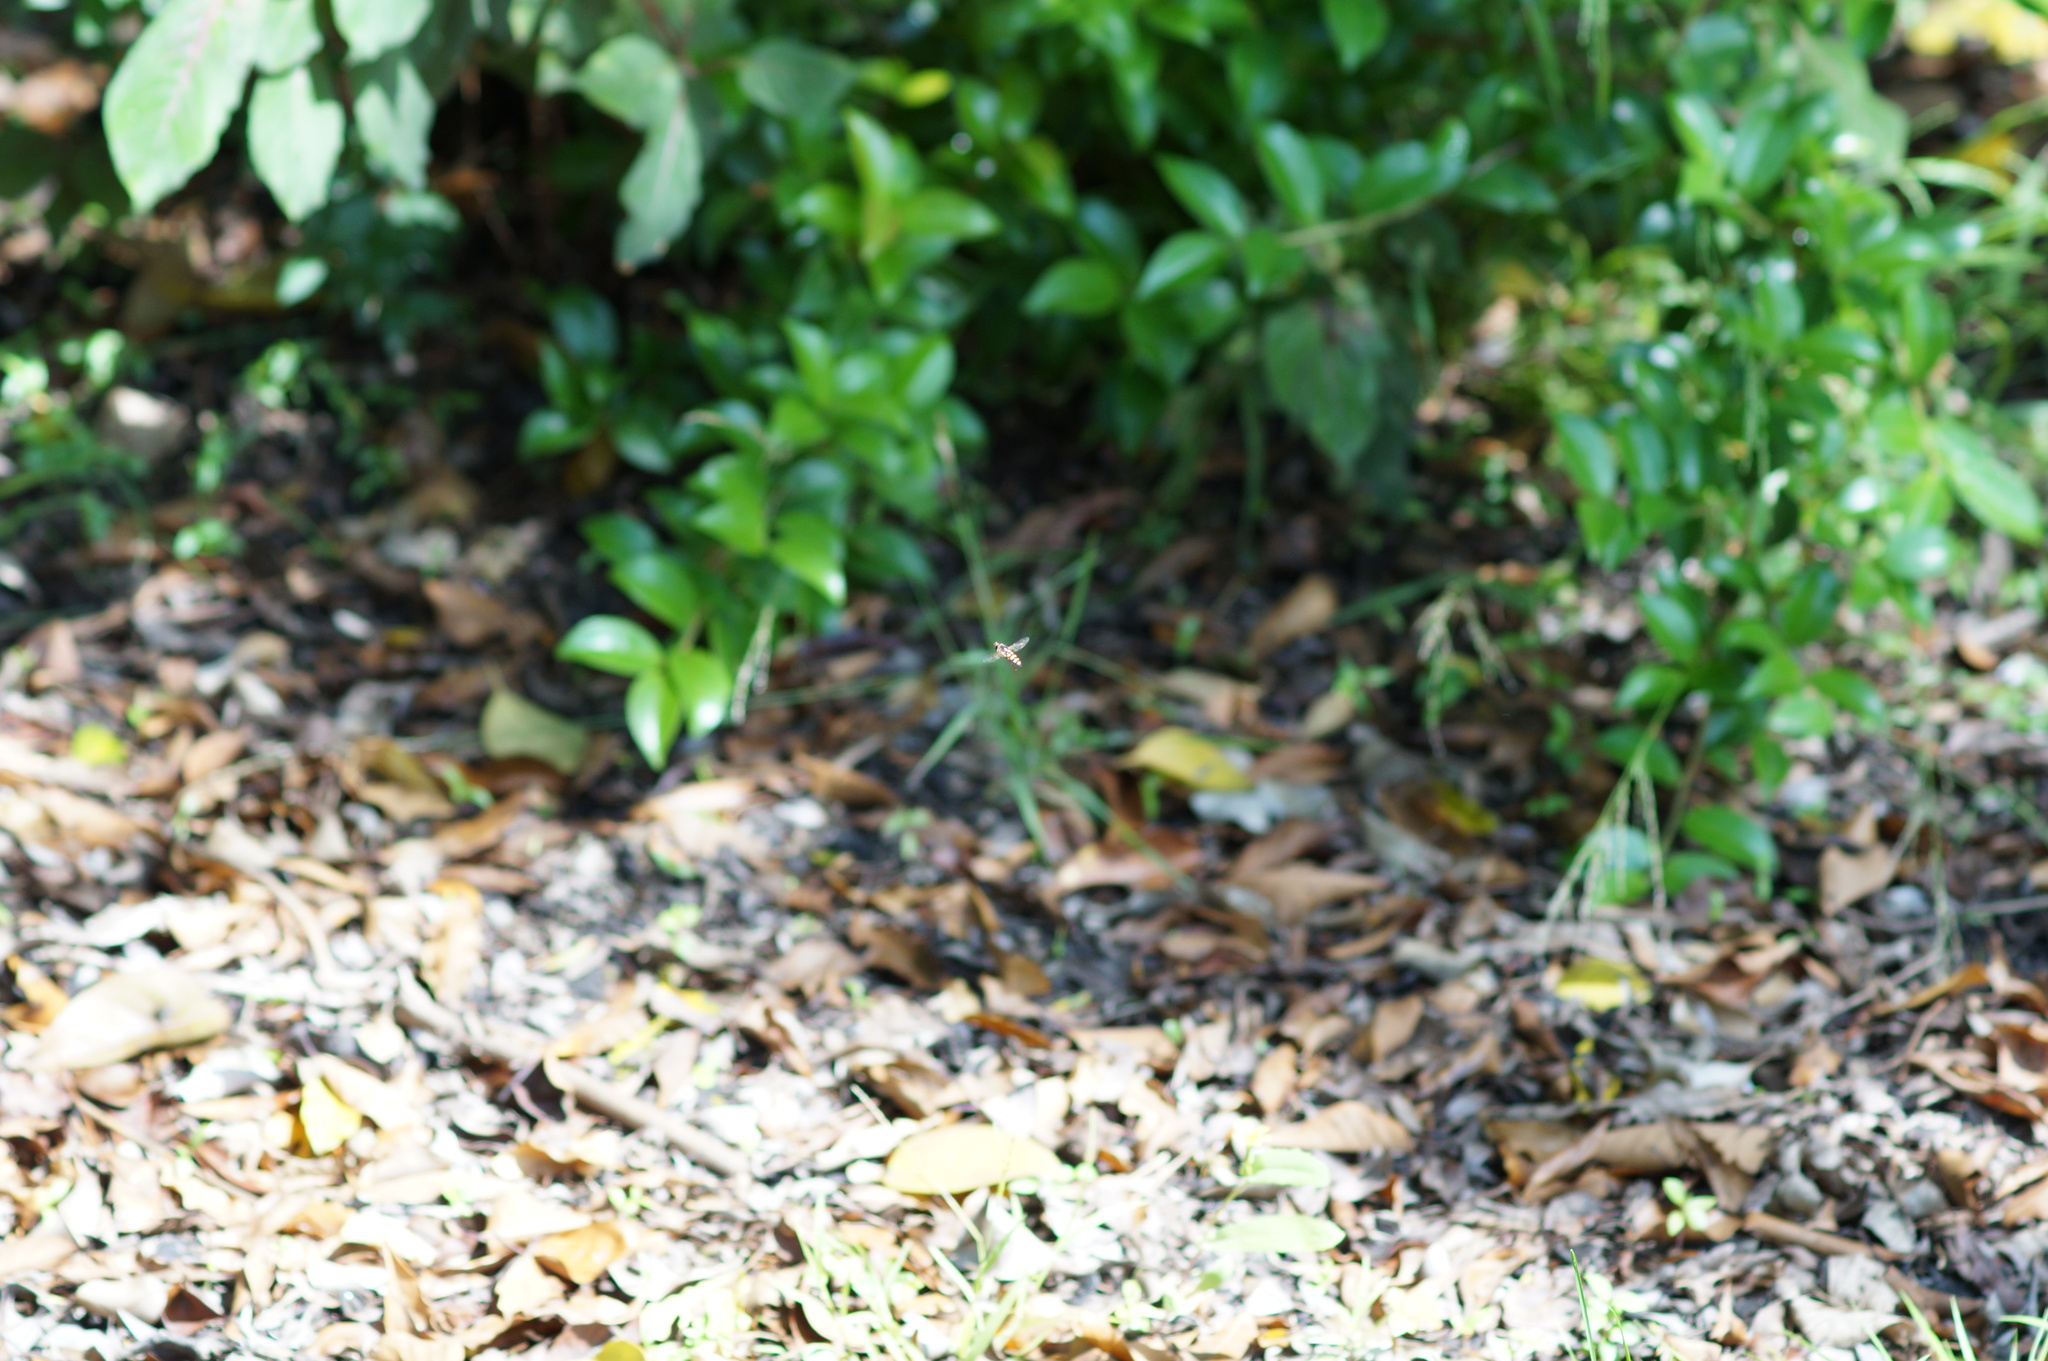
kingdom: Animalia
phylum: Arthropoda
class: Insecta
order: Diptera
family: Syrphidae
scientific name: Syrphidae
